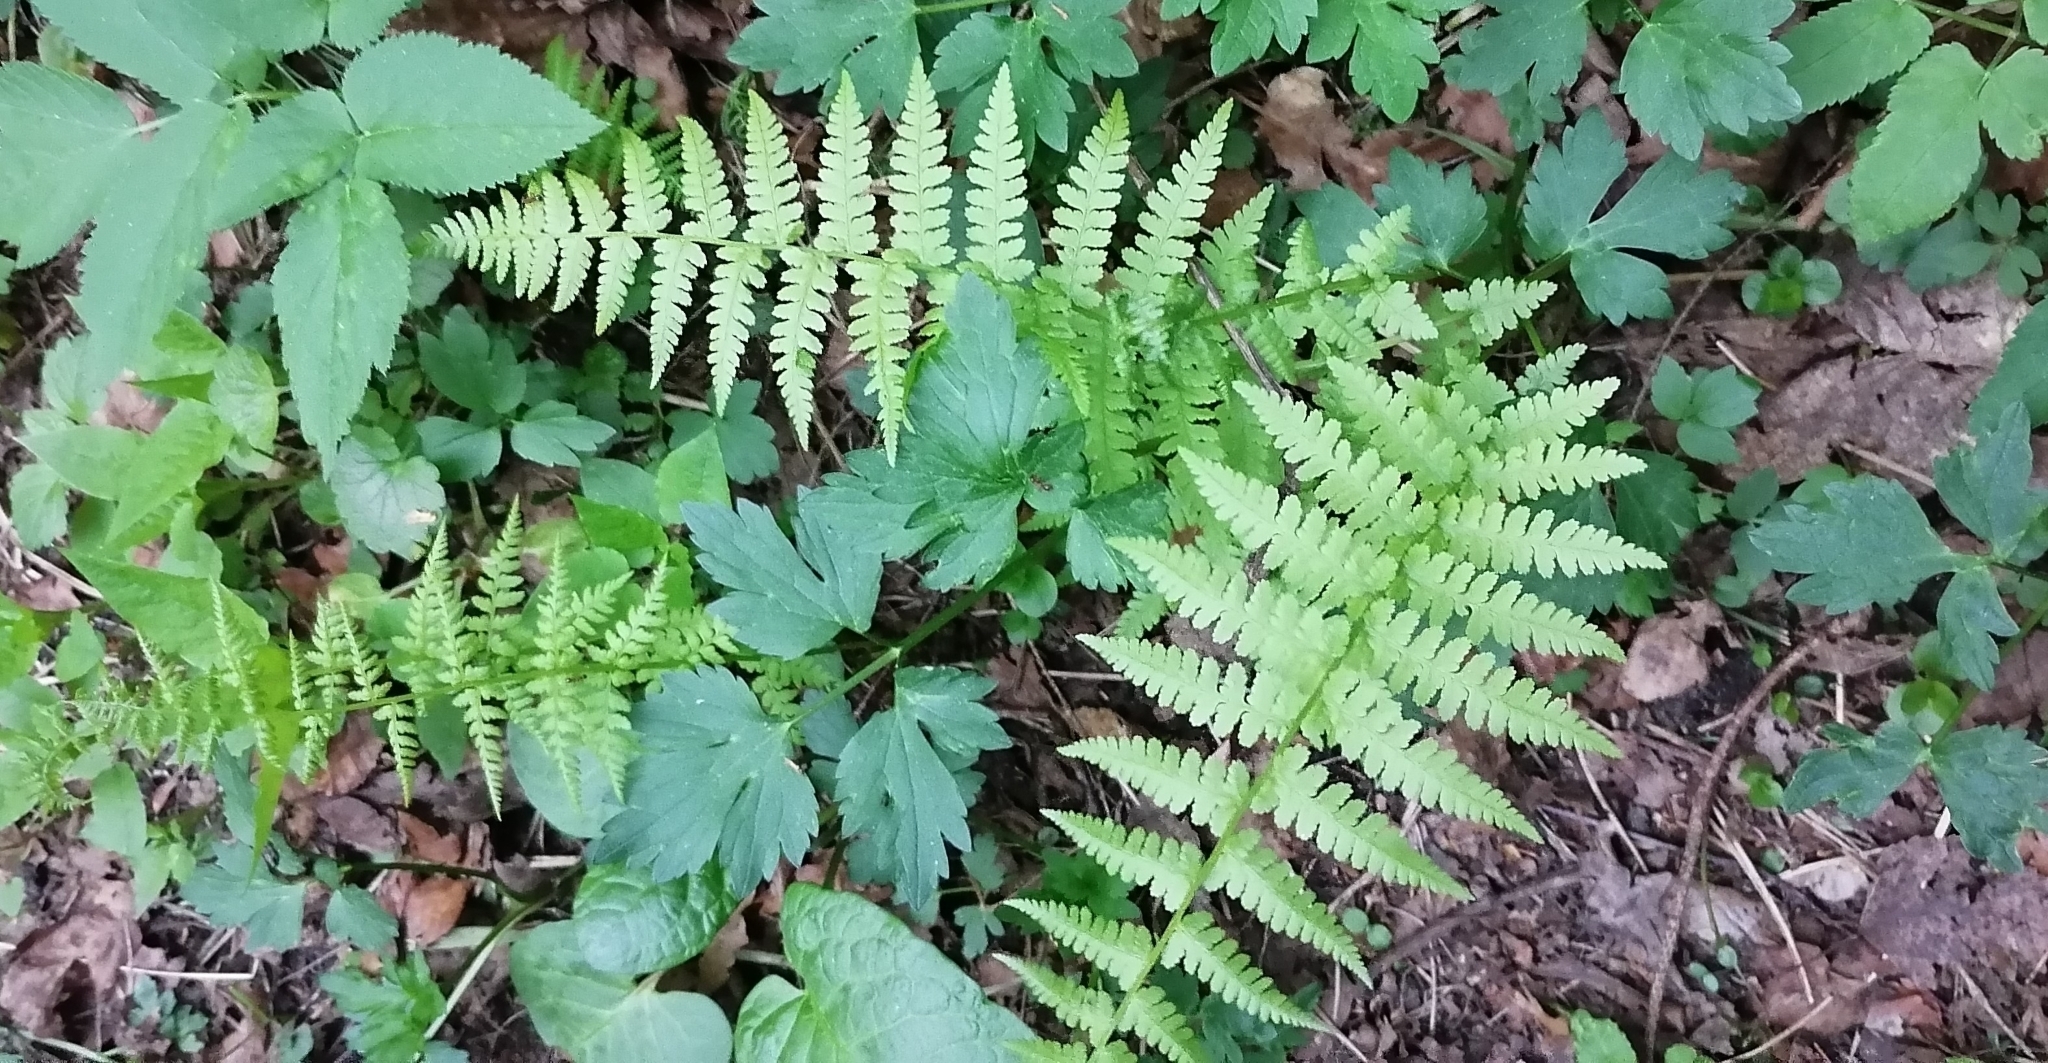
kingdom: Plantae
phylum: Tracheophyta
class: Polypodiopsida
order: Polypodiales
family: Dryopteridaceae
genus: Dryopteris
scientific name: Dryopteris filix-mas
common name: Male fern
